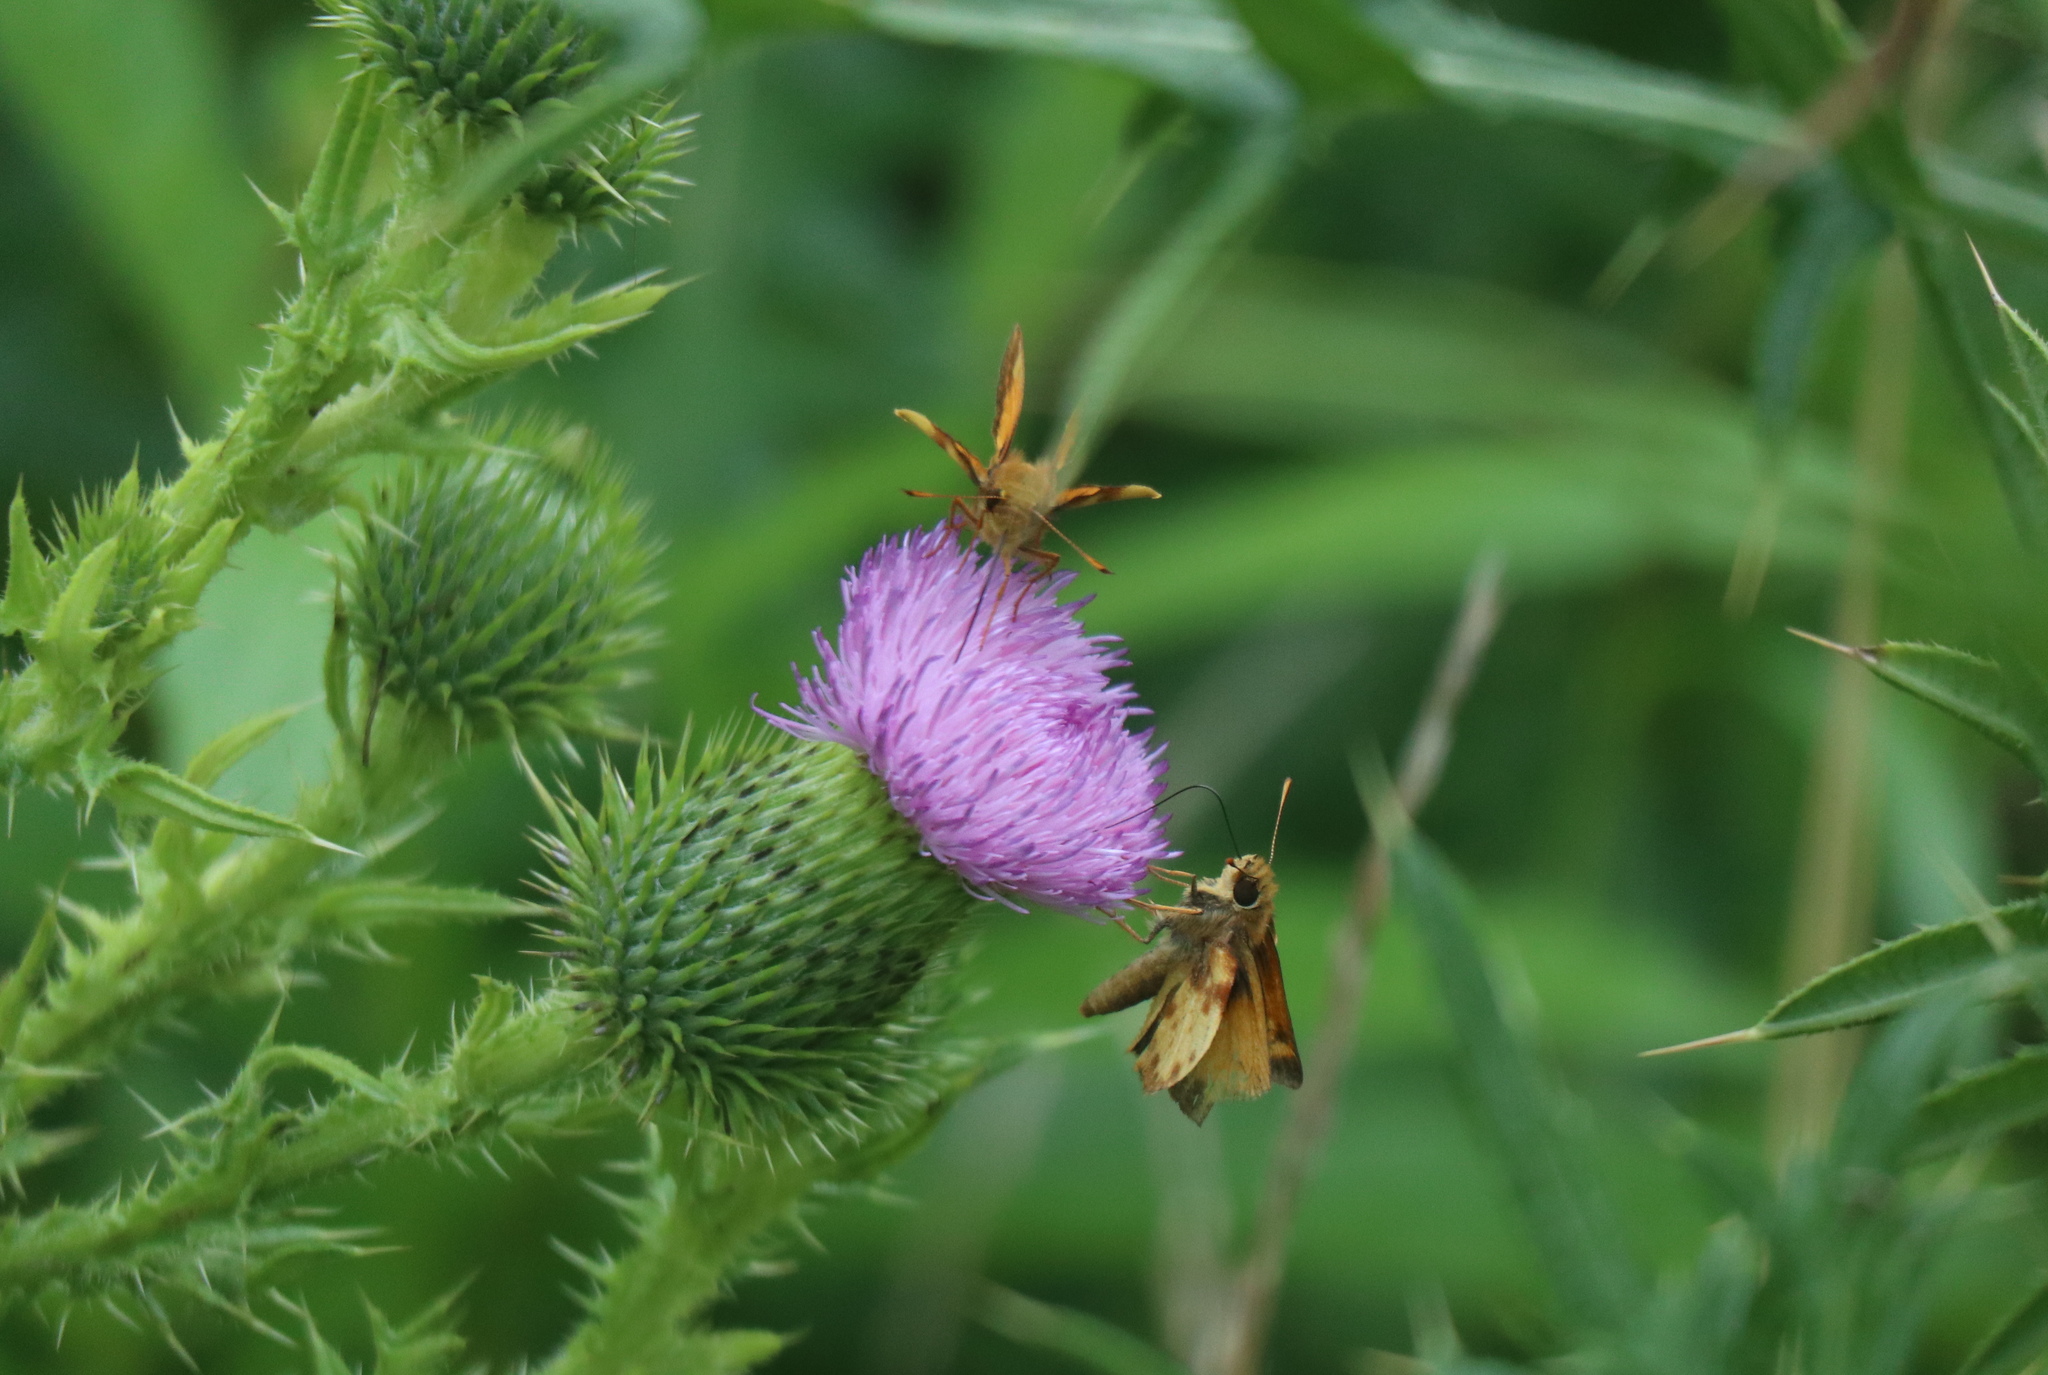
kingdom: Animalia
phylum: Arthropoda
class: Insecta
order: Lepidoptera
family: Hesperiidae
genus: Lon
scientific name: Lon zabulon
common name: Zabulon skipper
